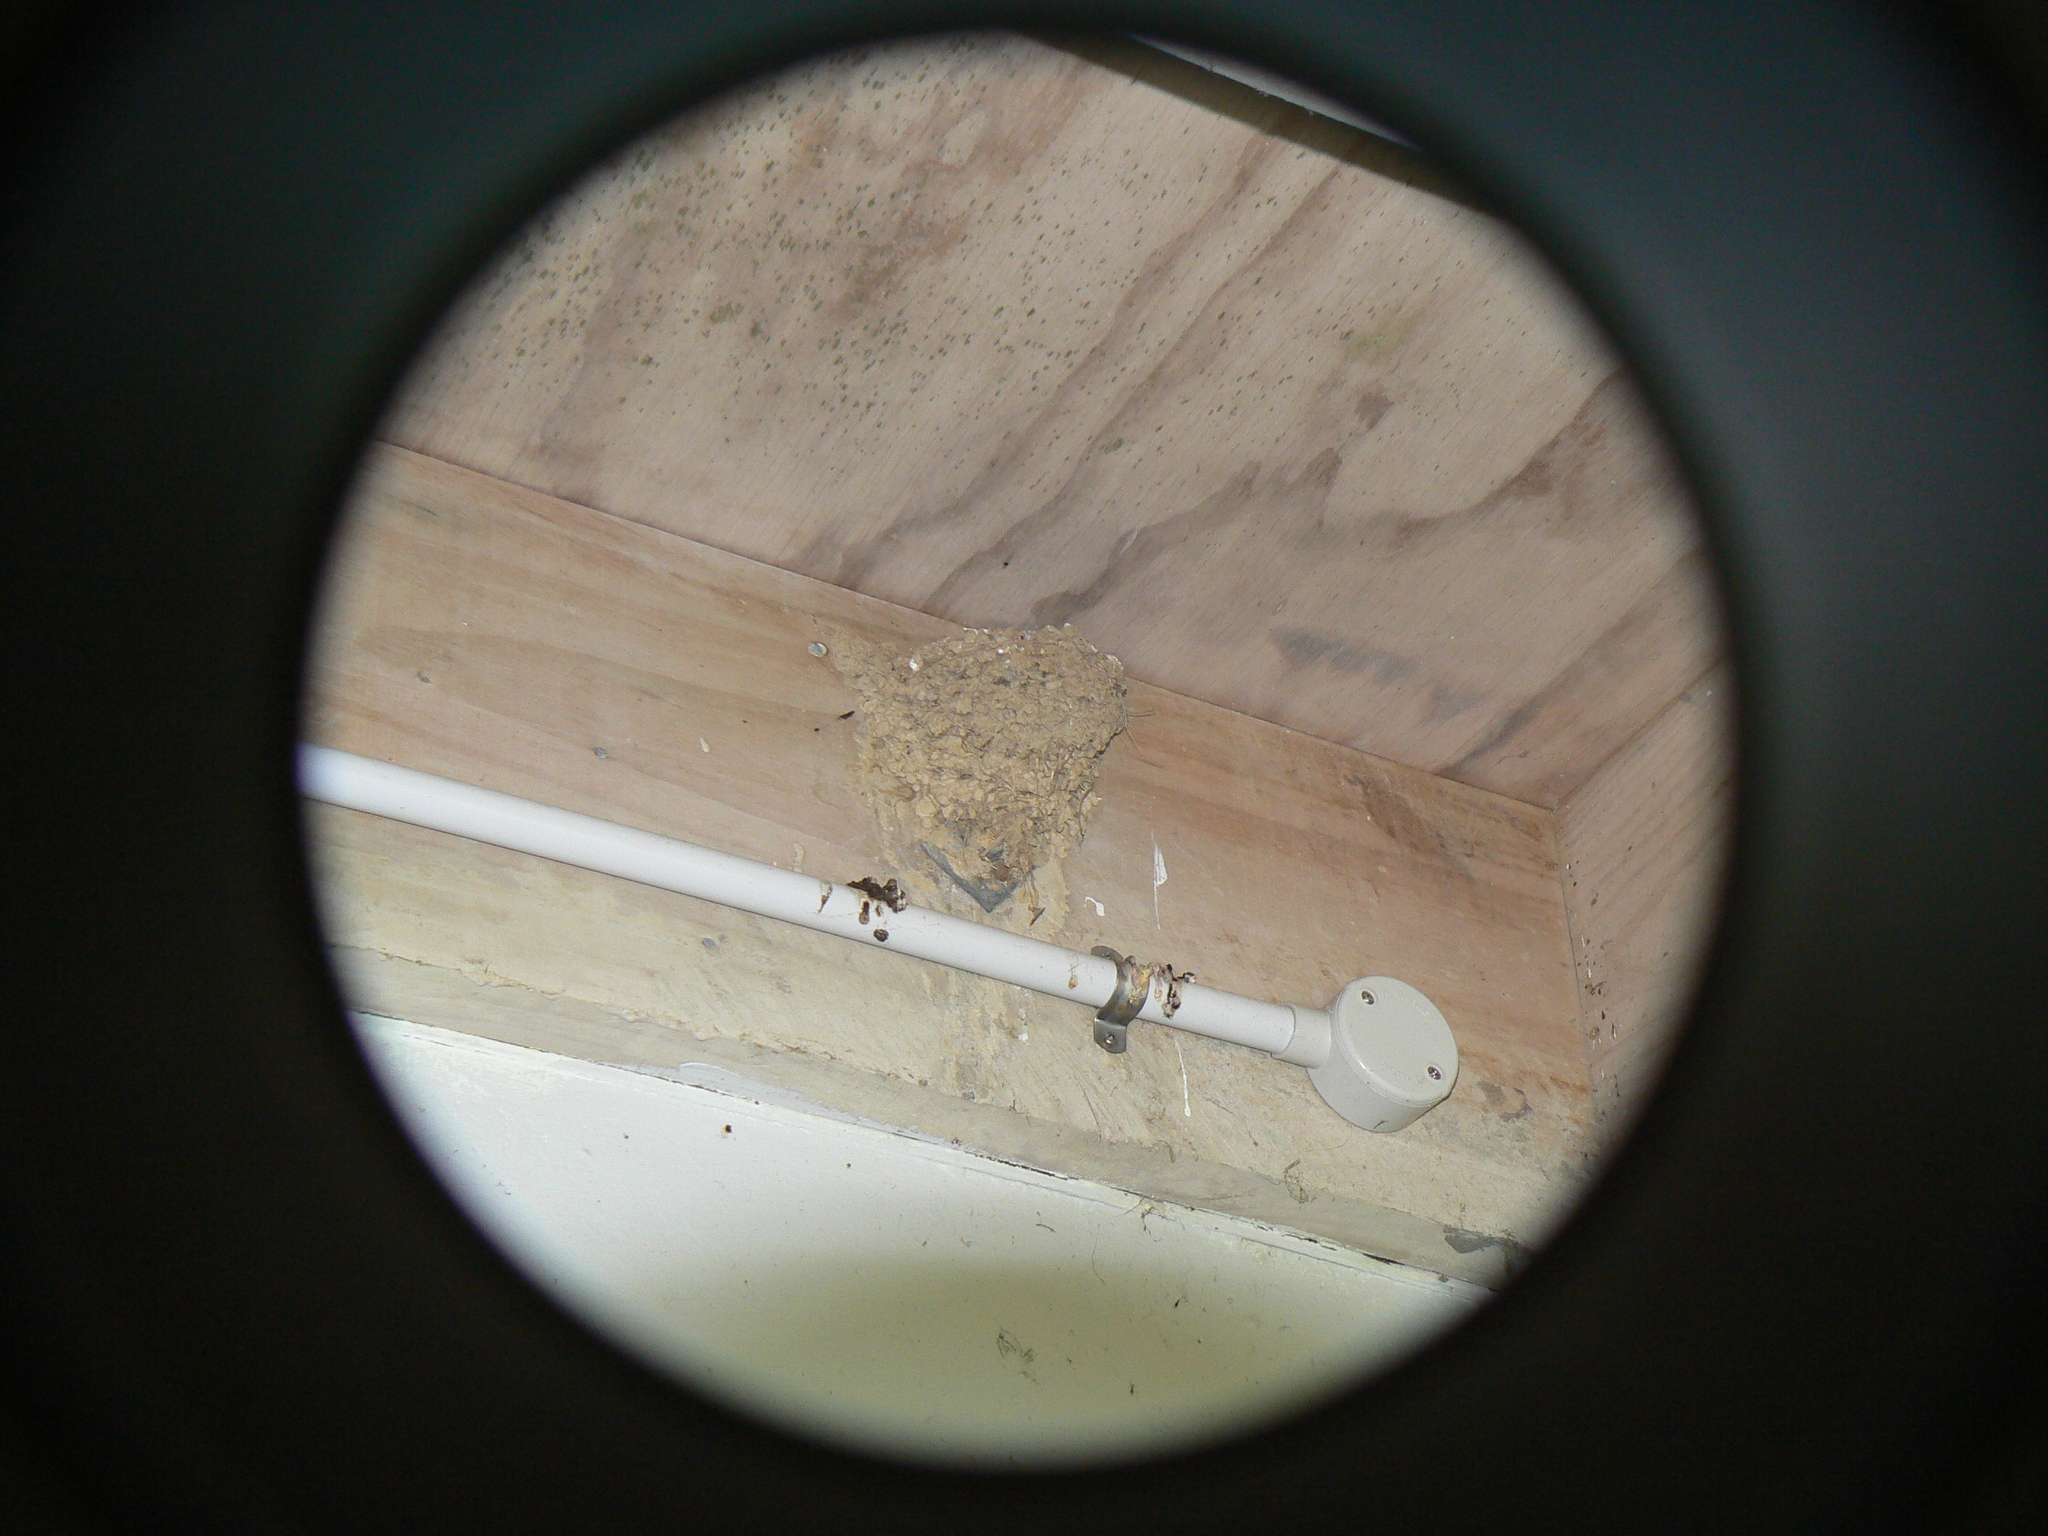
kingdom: Animalia
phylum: Chordata
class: Aves
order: Passeriformes
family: Hirundinidae
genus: Hirundo
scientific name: Hirundo neoxena
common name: Welcome swallow
